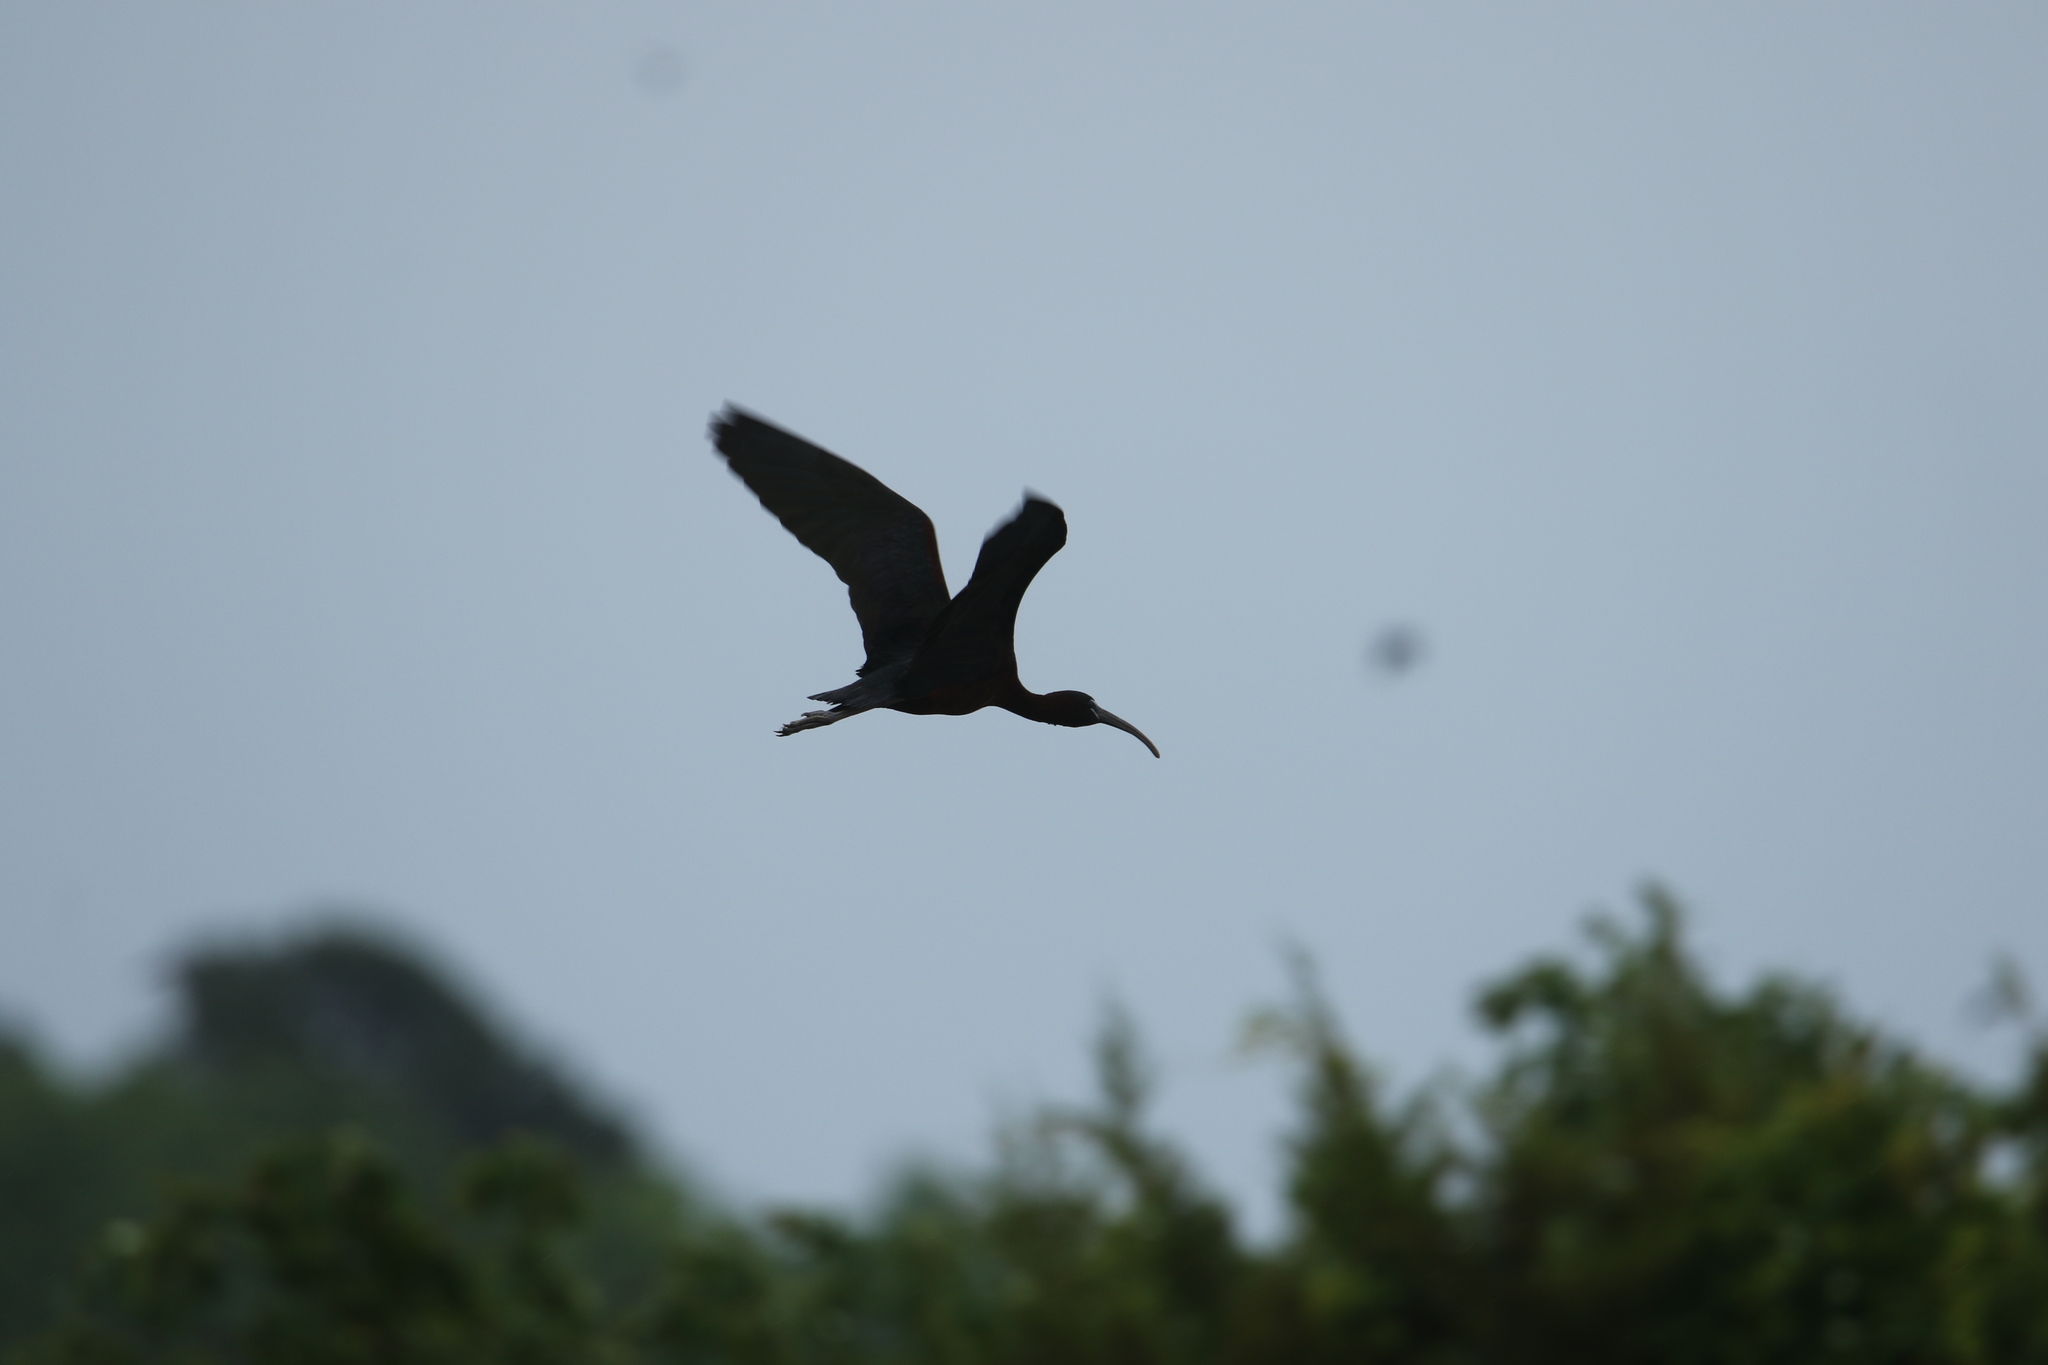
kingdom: Animalia
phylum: Chordata
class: Aves
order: Pelecaniformes
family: Threskiornithidae
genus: Plegadis
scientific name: Plegadis falcinellus
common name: Glossy ibis
